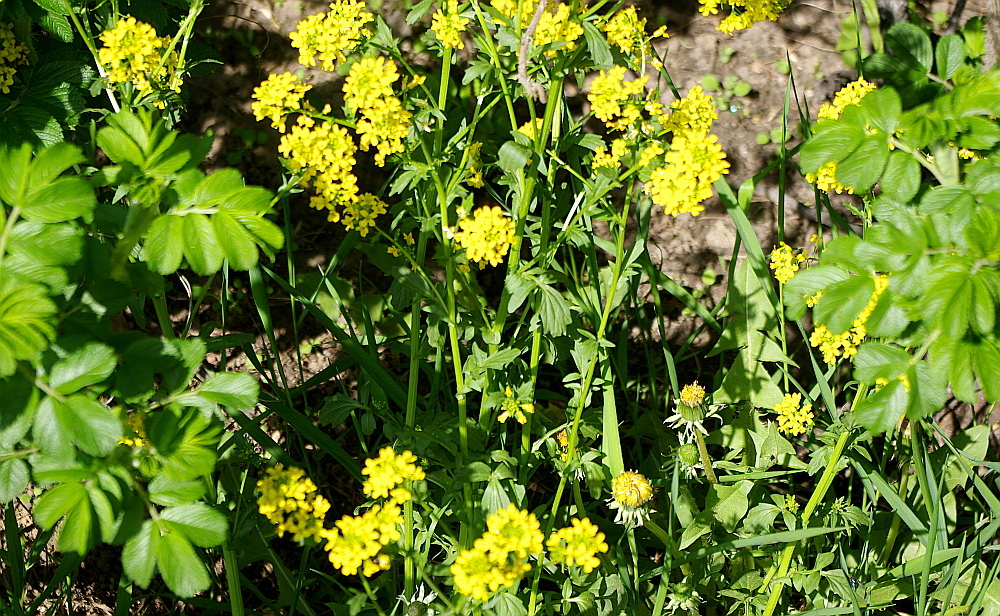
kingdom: Plantae
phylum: Tracheophyta
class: Magnoliopsida
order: Brassicales
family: Brassicaceae
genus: Barbarea
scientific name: Barbarea vulgaris
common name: Cressy-greens
